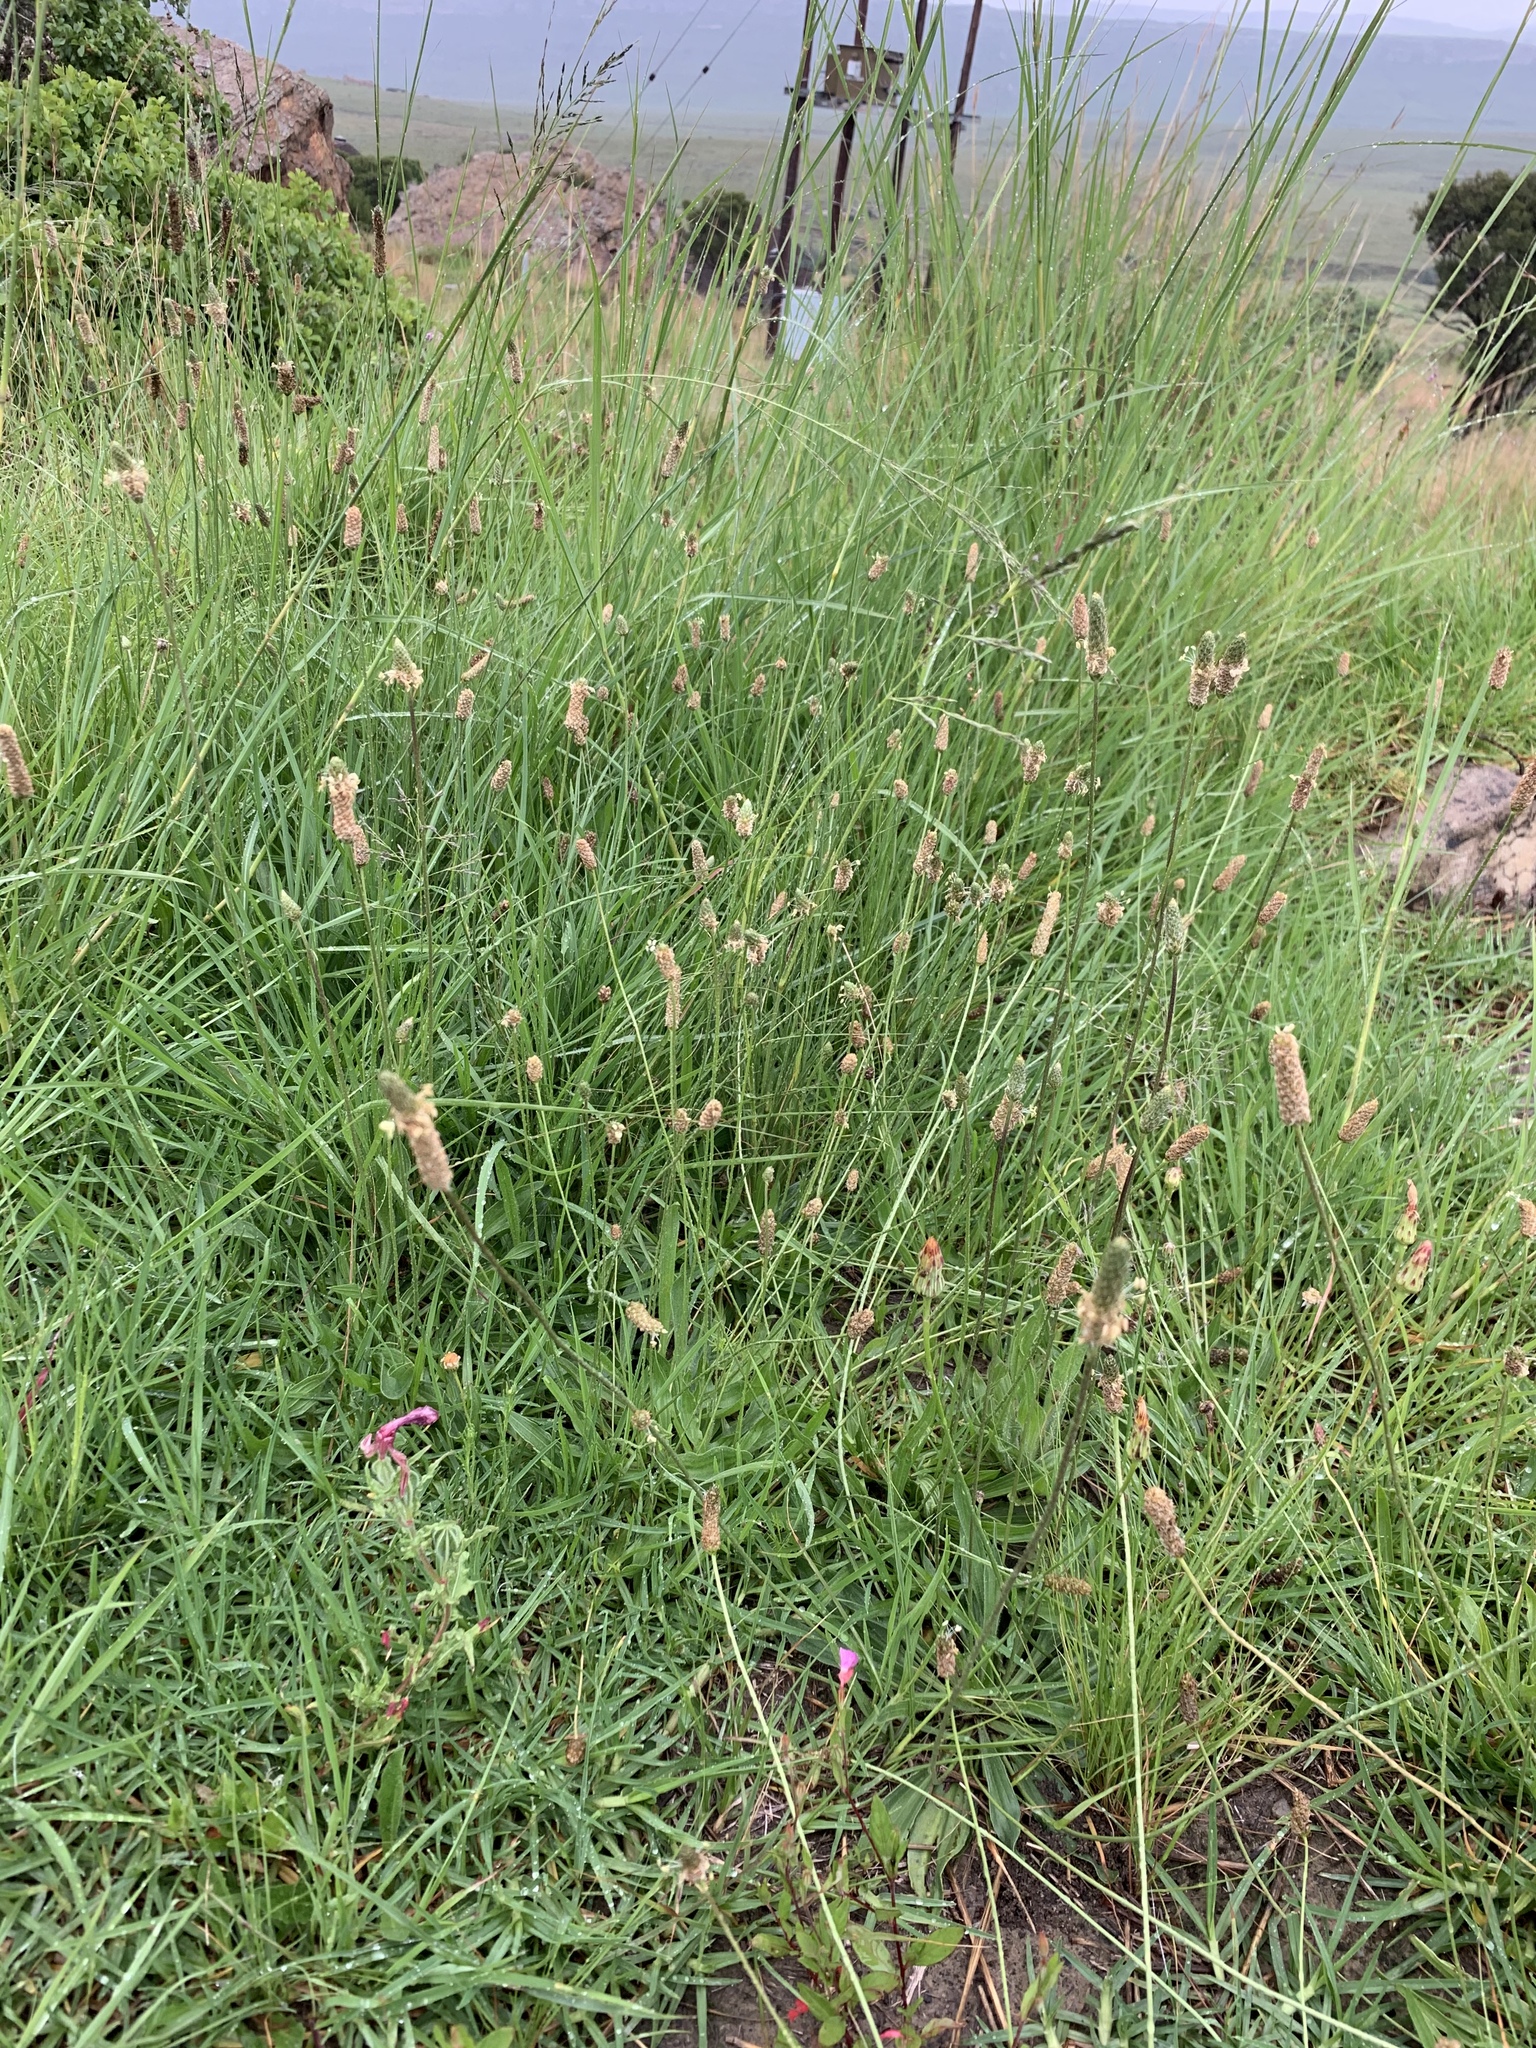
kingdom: Plantae
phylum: Tracheophyta
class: Magnoliopsida
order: Lamiales
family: Plantaginaceae
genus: Plantago
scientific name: Plantago lanceolata
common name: Ribwort plantain
